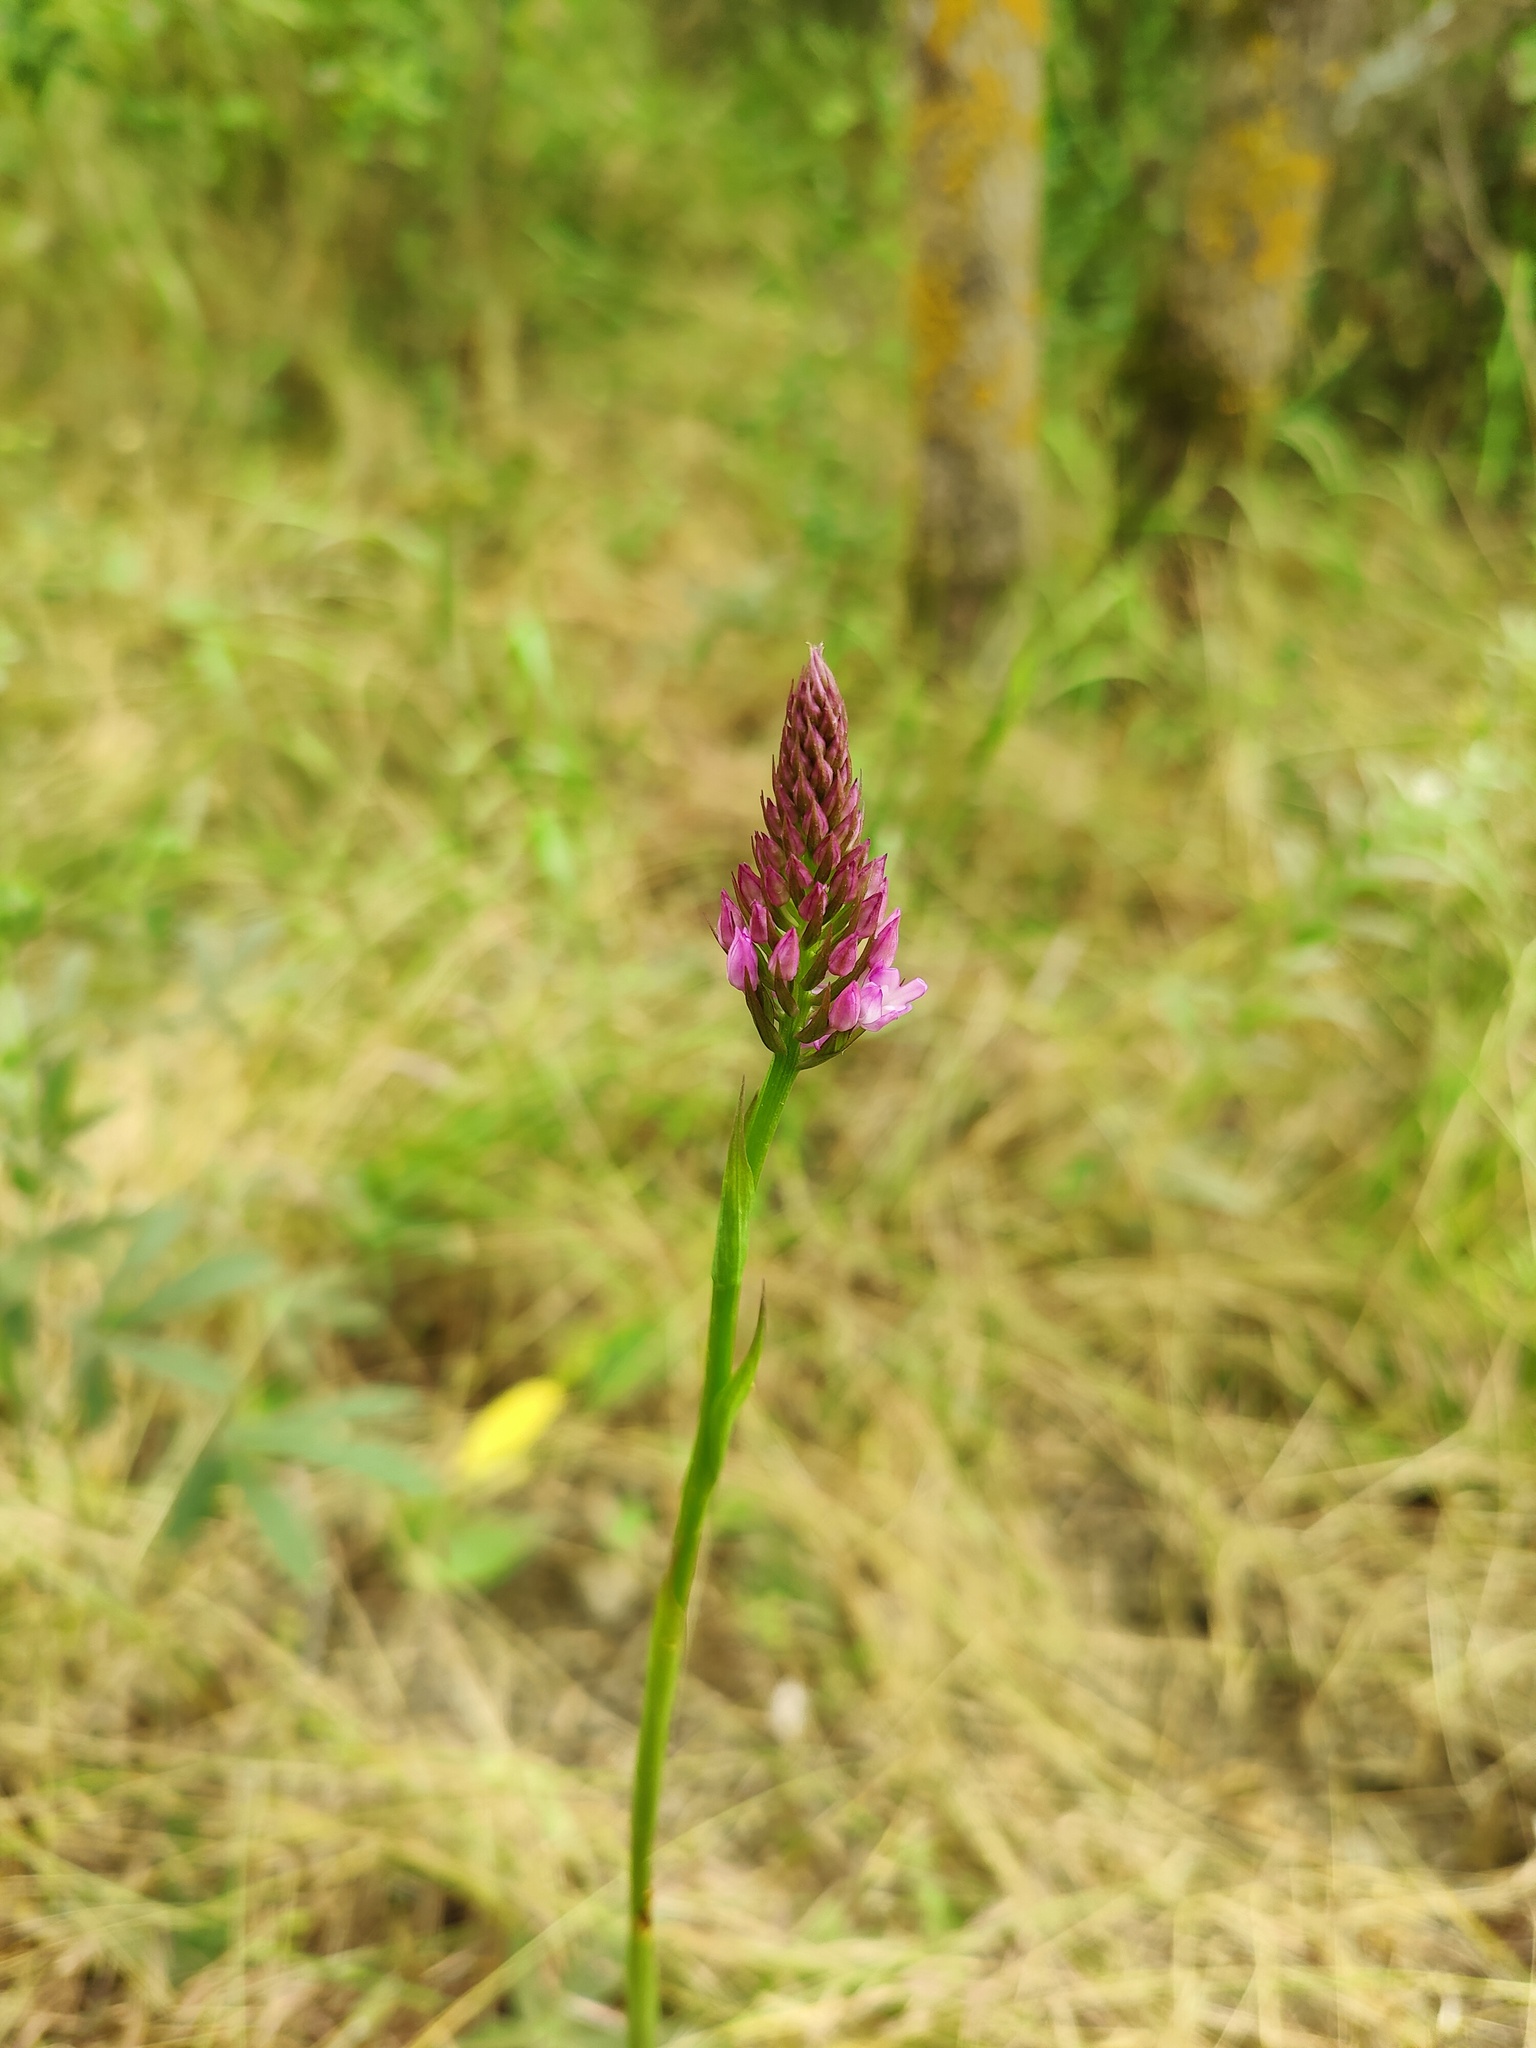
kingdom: Plantae
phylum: Tracheophyta
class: Liliopsida
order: Asparagales
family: Orchidaceae
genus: Anacamptis
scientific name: Anacamptis pyramidalis
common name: Pyramidal orchid
